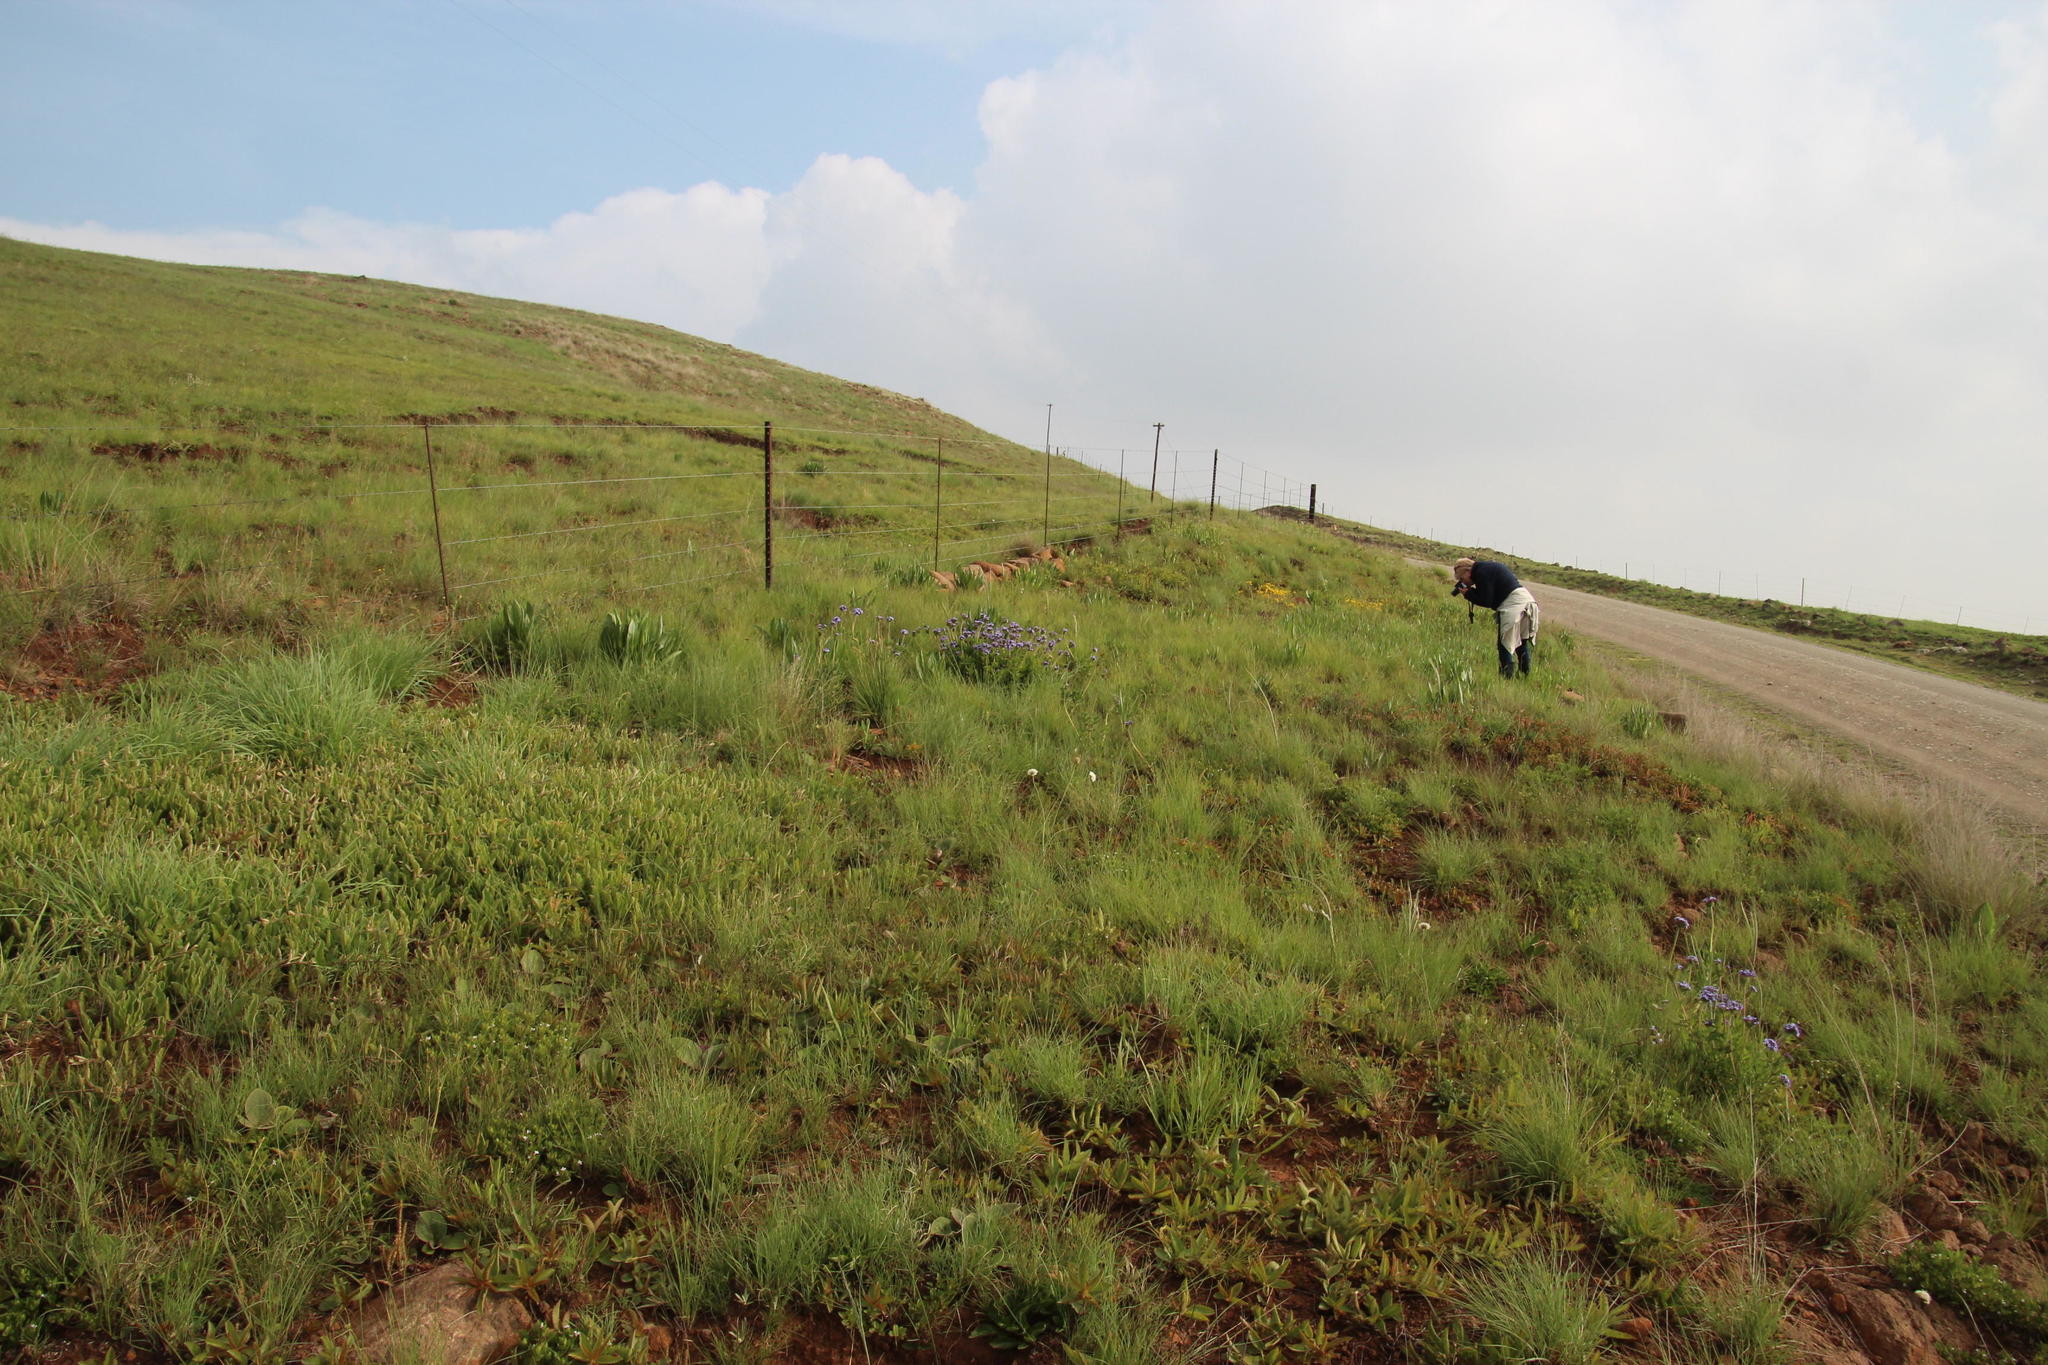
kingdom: Plantae
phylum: Tracheophyta
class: Magnoliopsida
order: Gentianales
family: Rubiaceae
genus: Pentanisia
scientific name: Pentanisia prunelloides
